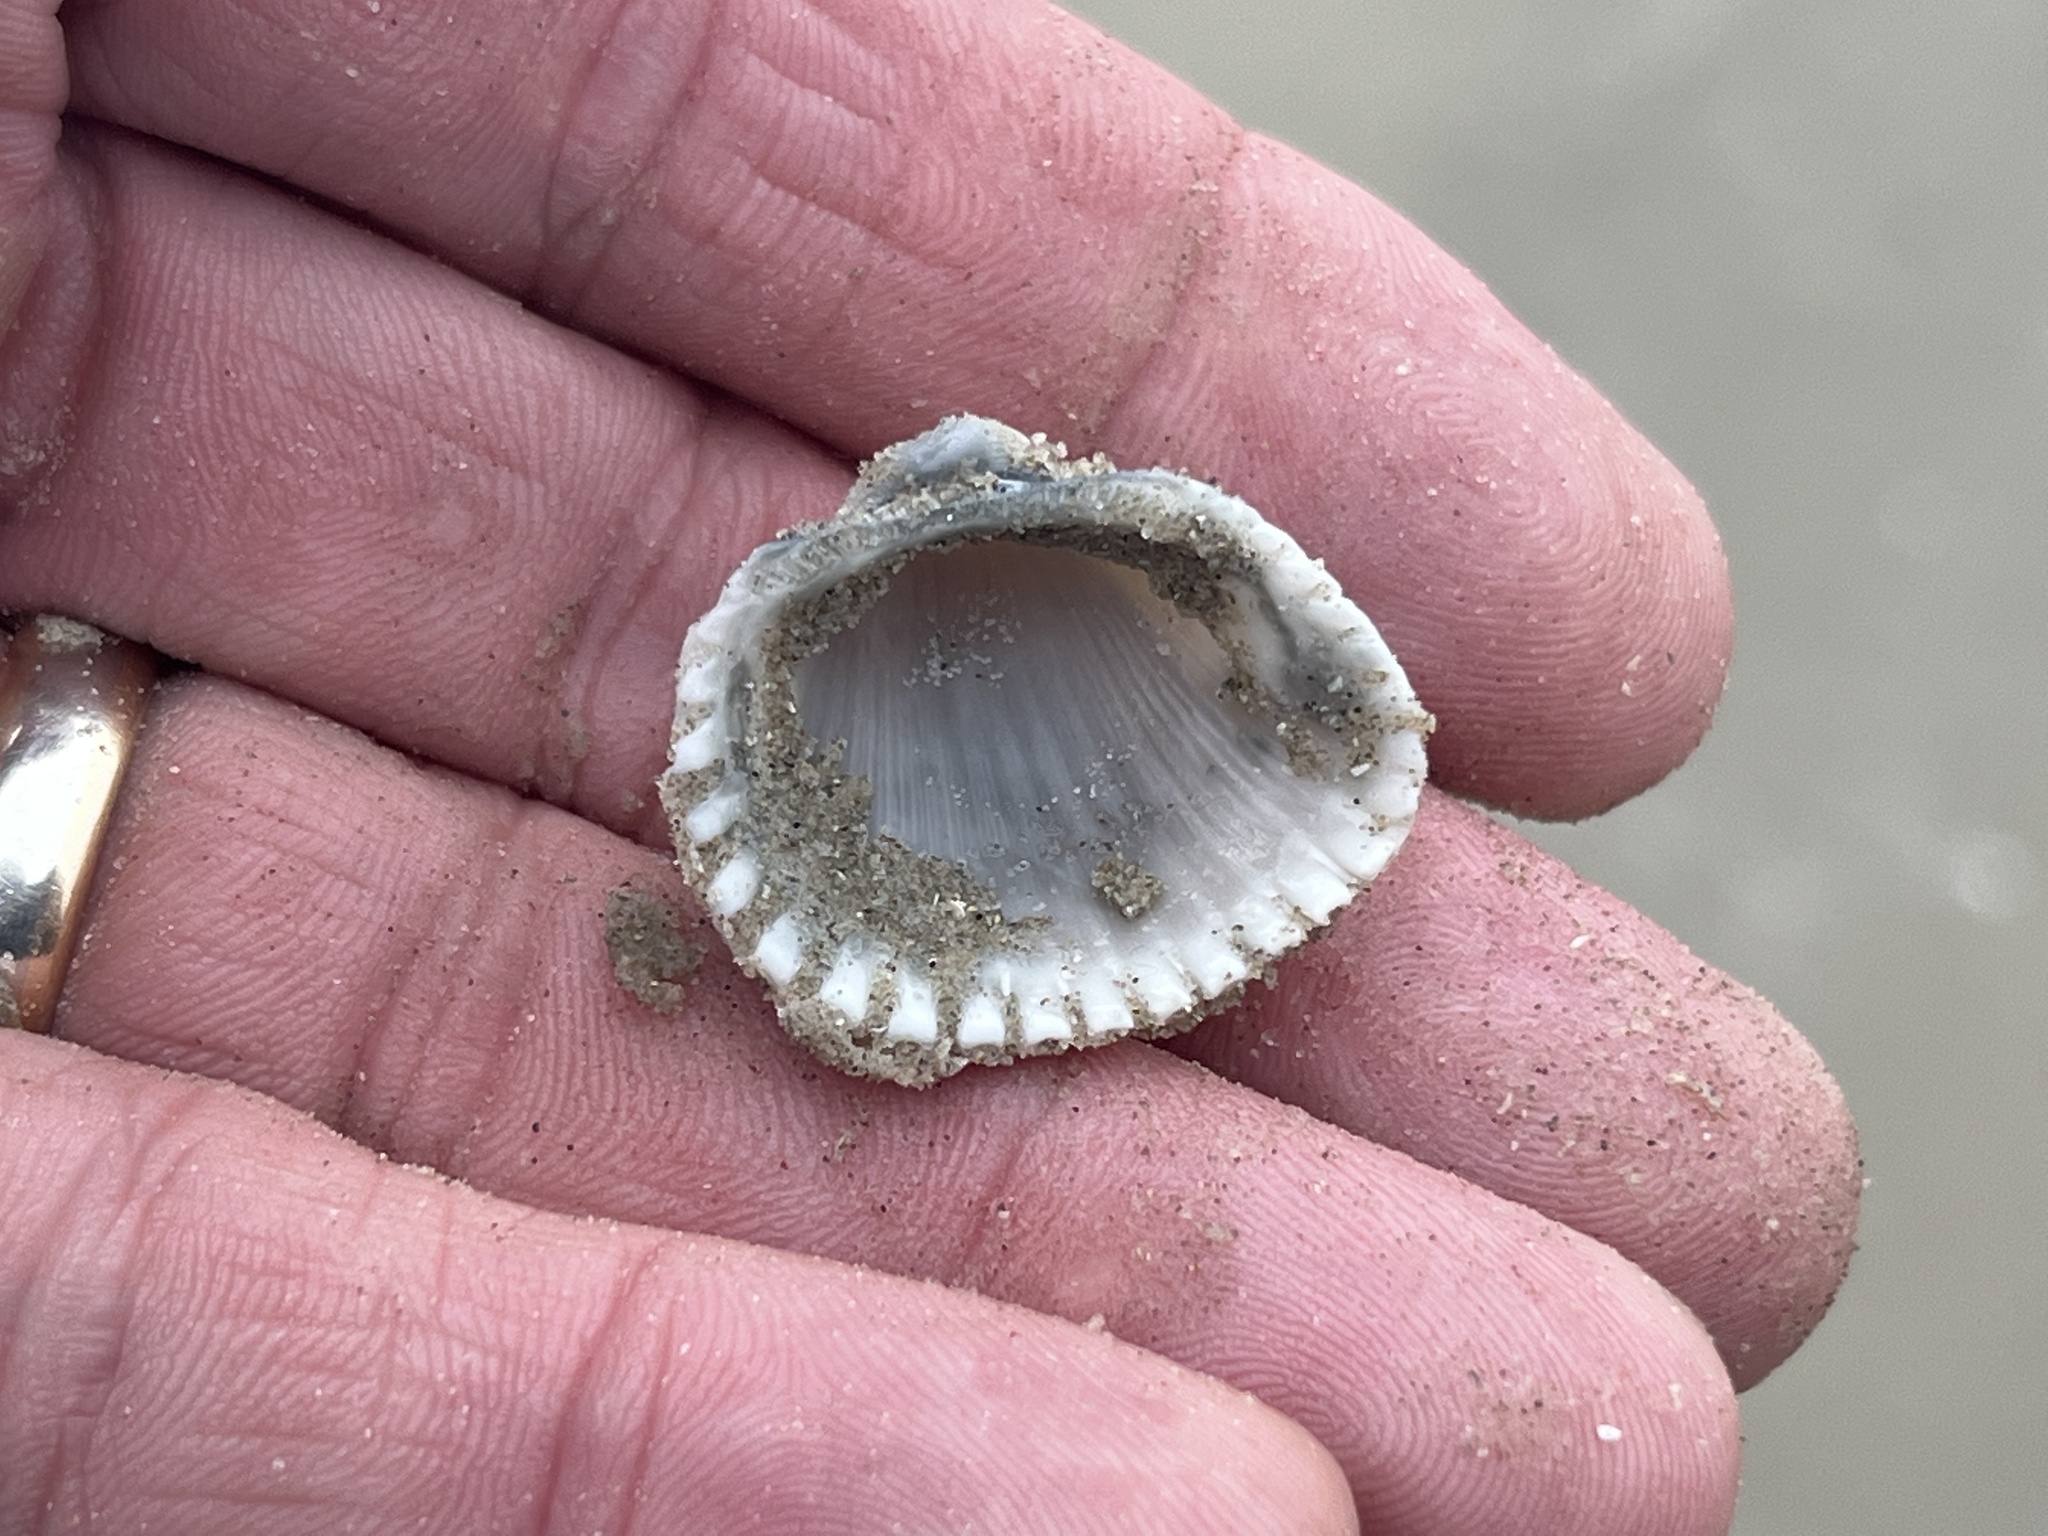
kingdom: Animalia
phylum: Mollusca
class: Bivalvia
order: Arcida
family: Arcidae
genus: Anadara
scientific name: Anadara brasiliana
